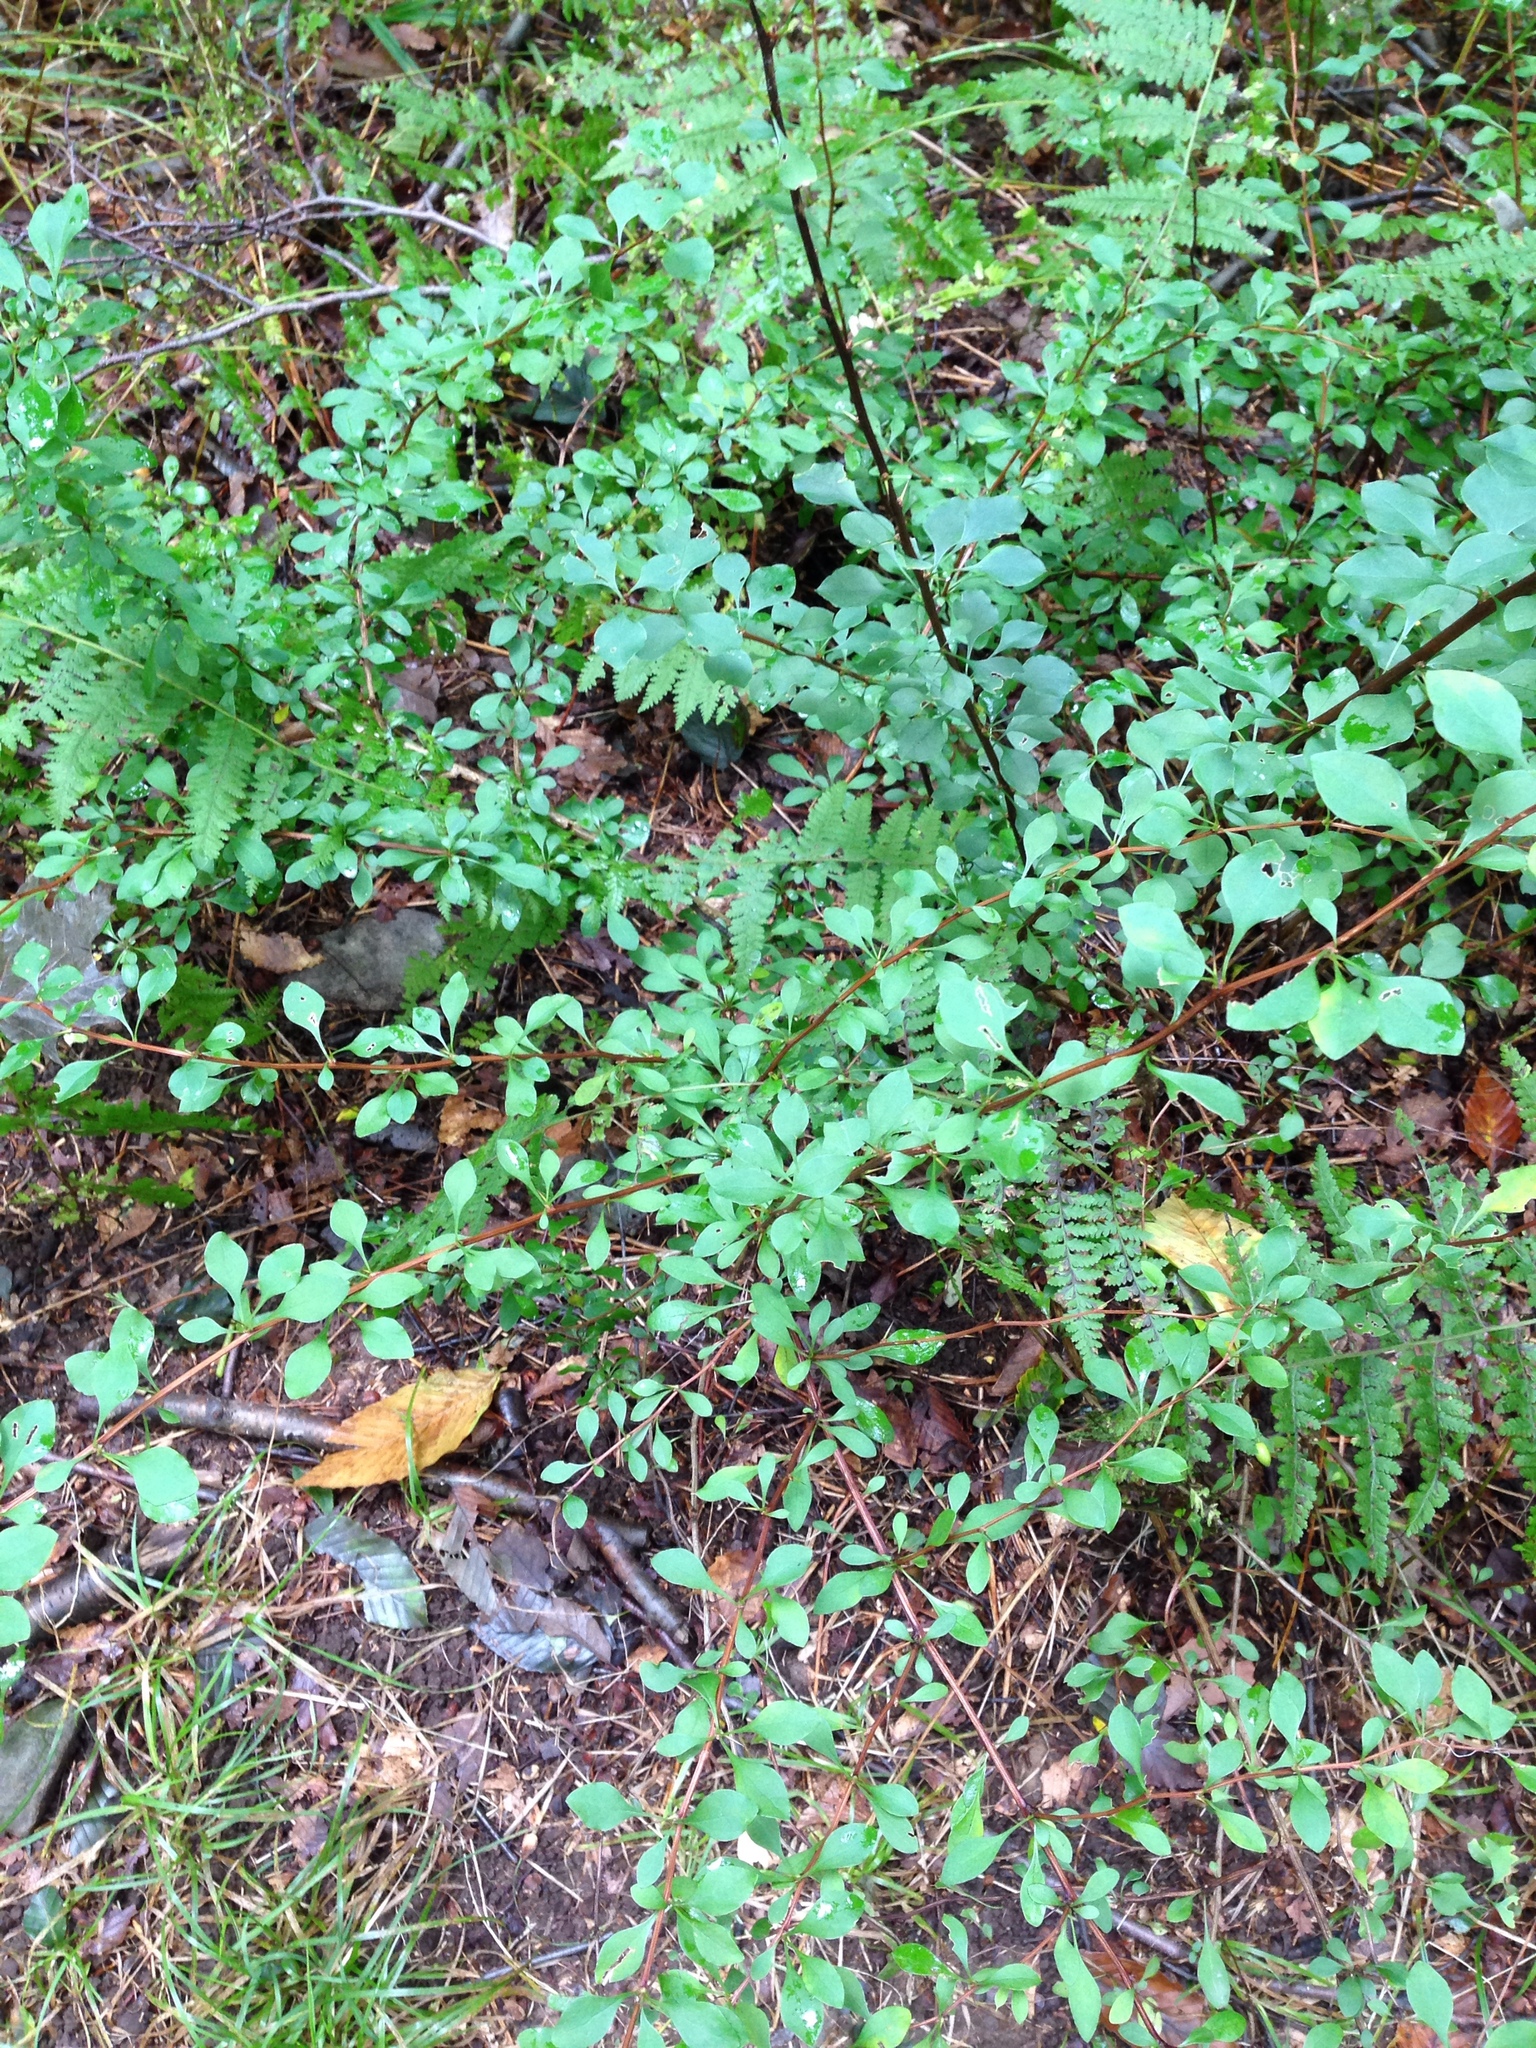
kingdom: Plantae
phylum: Tracheophyta
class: Magnoliopsida
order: Ranunculales
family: Berberidaceae
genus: Berberis
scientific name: Berberis thunbergii
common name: Japanese barberry
